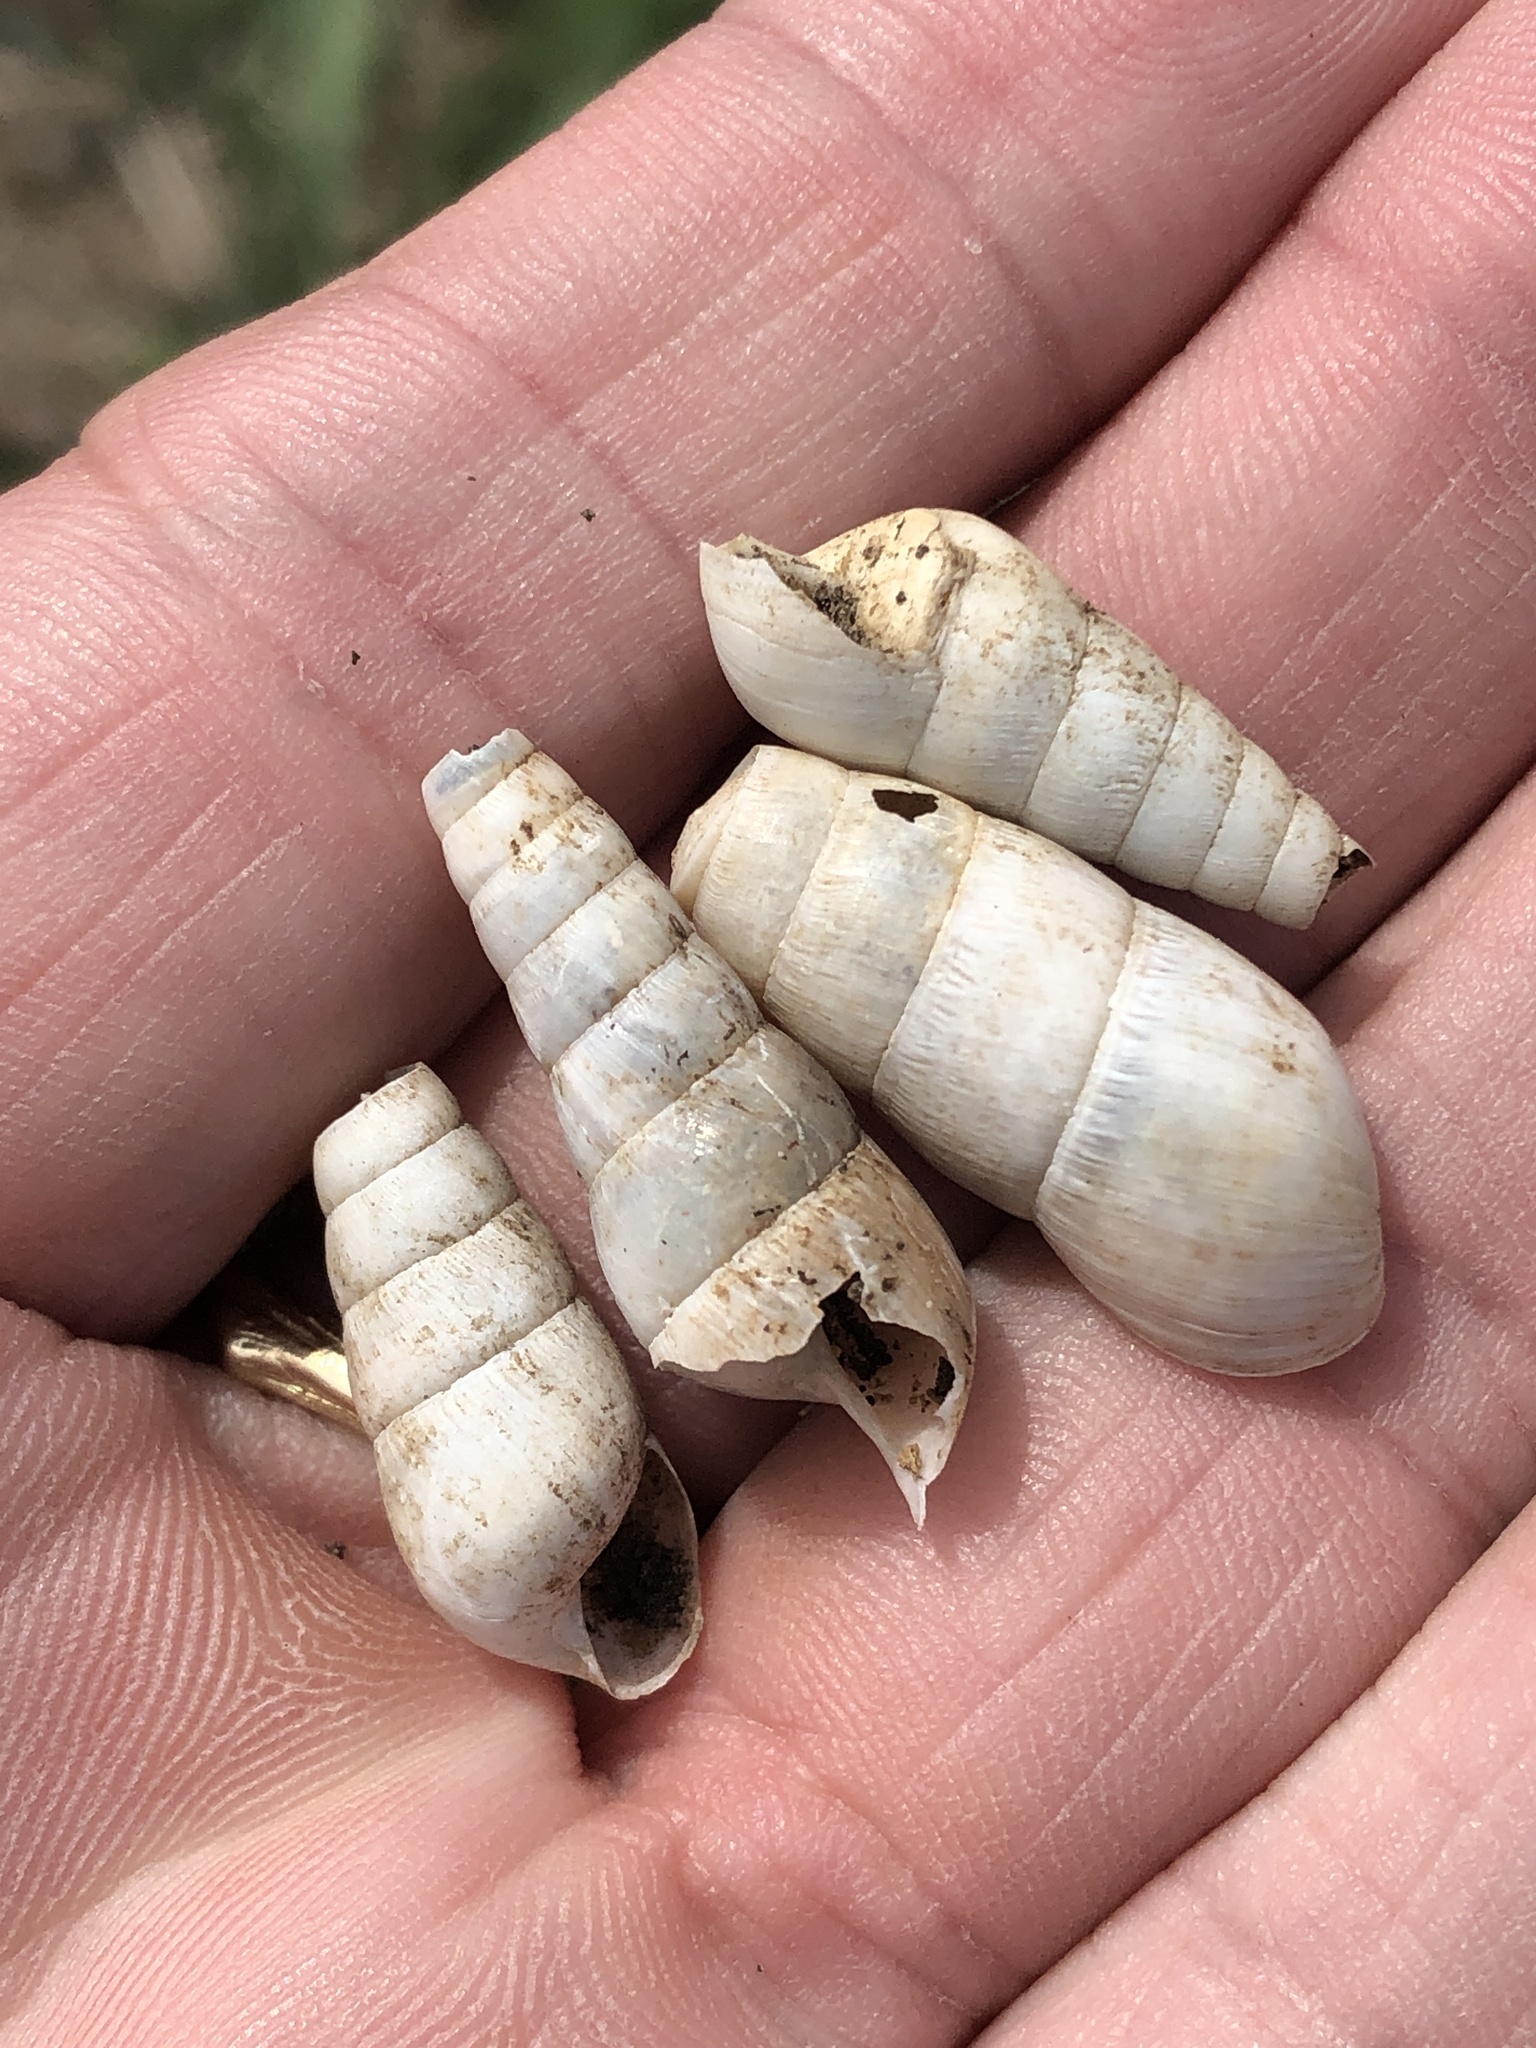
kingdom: Animalia
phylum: Mollusca
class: Gastropoda
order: Stylommatophora
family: Achatinidae
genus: Rumina
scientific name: Rumina decollata
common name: Decollate snail
